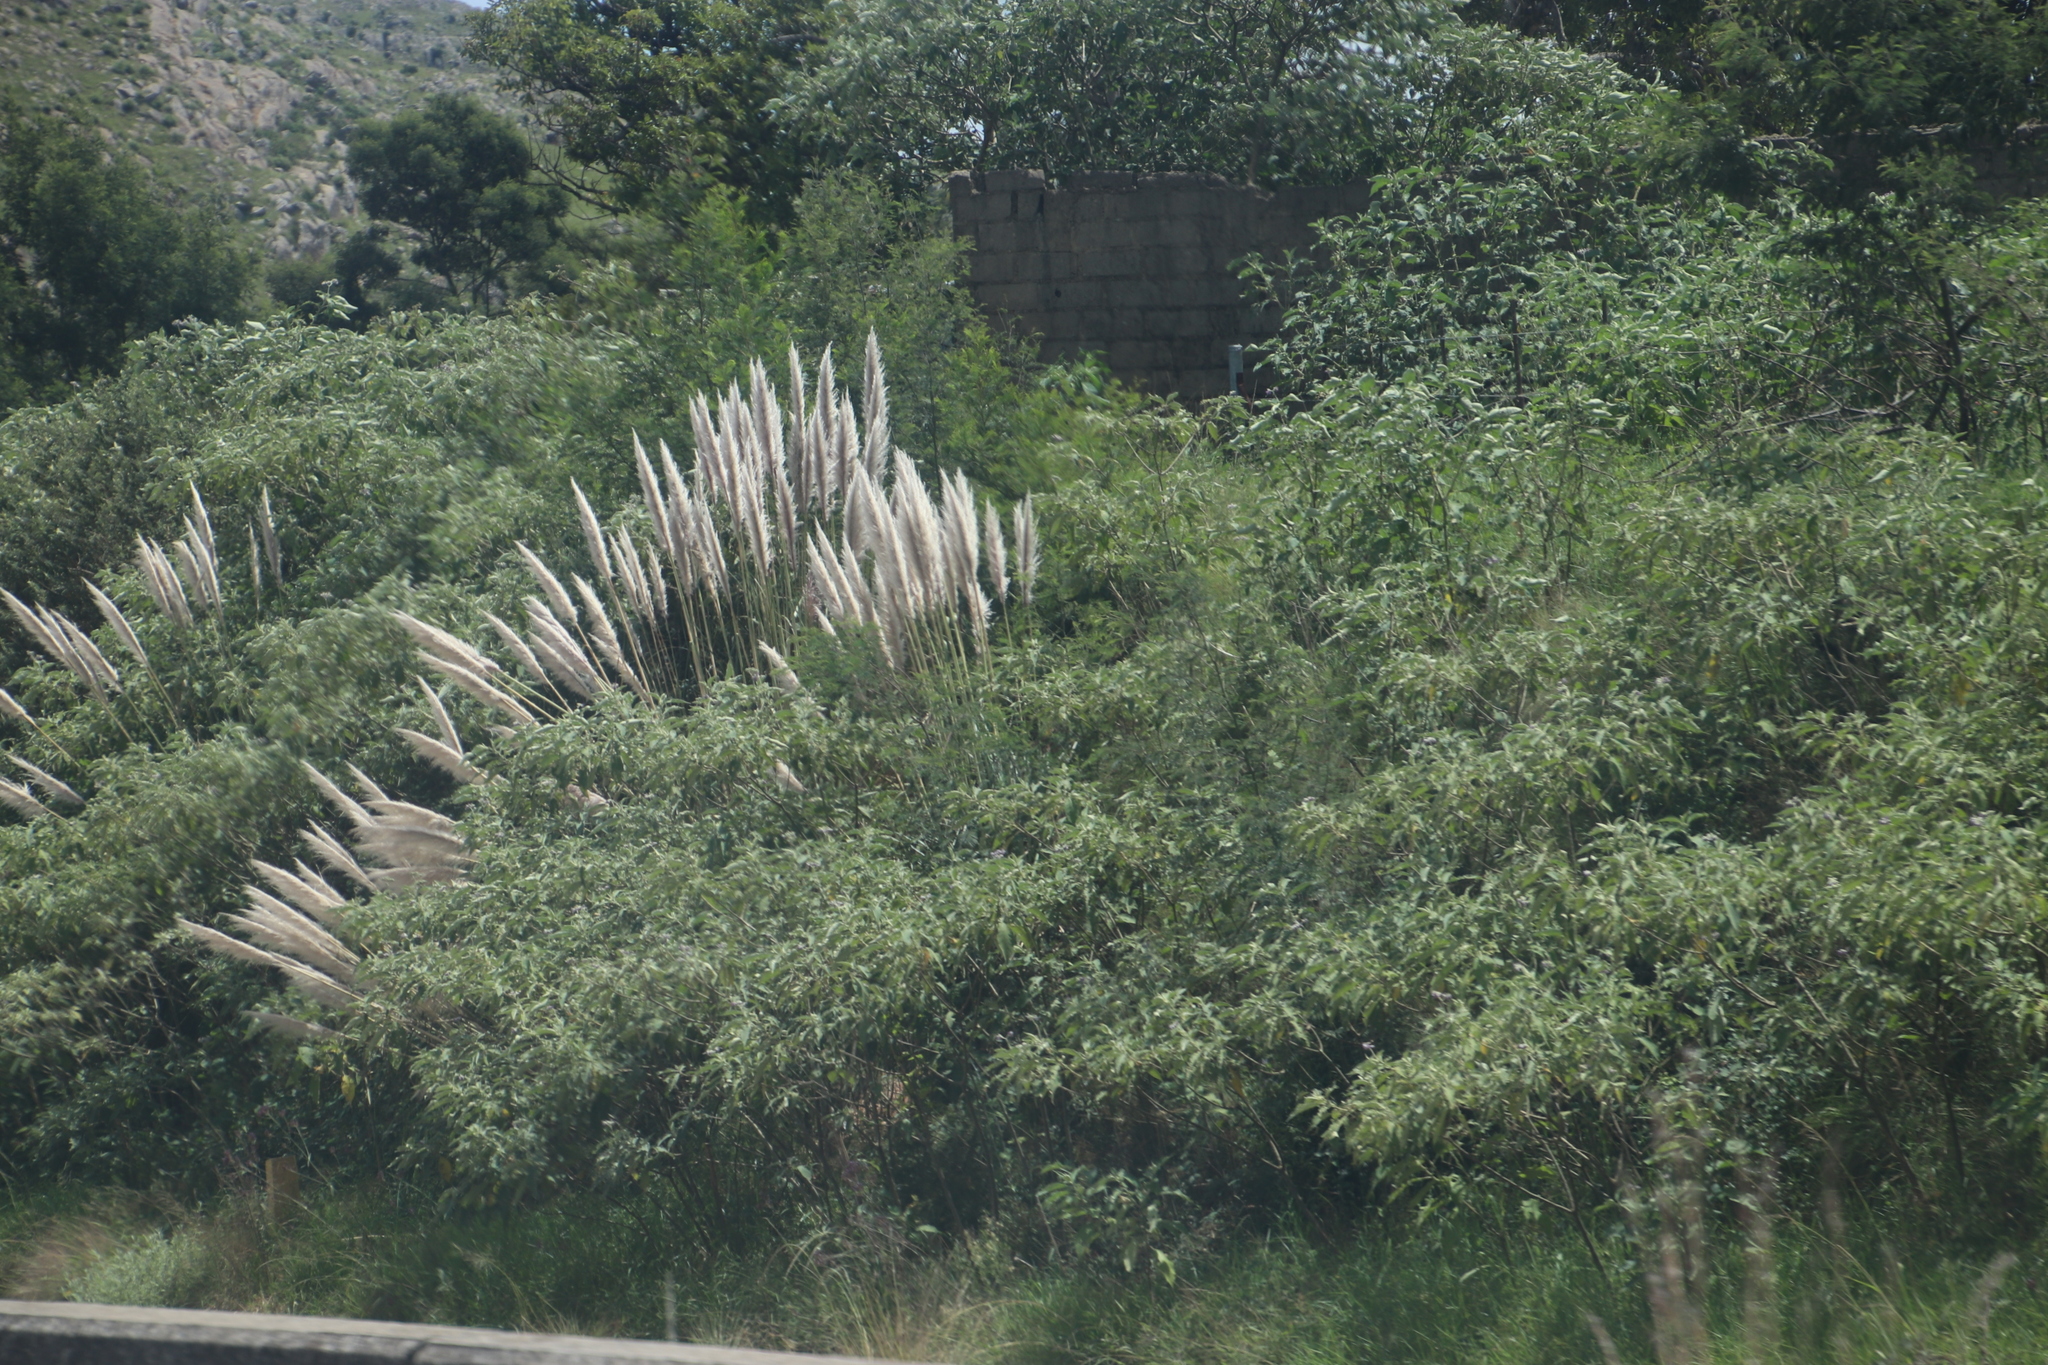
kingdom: Plantae
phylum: Tracheophyta
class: Liliopsida
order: Poales
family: Poaceae
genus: Cortaderia
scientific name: Cortaderia selloana
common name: Uruguayan pampas grass
